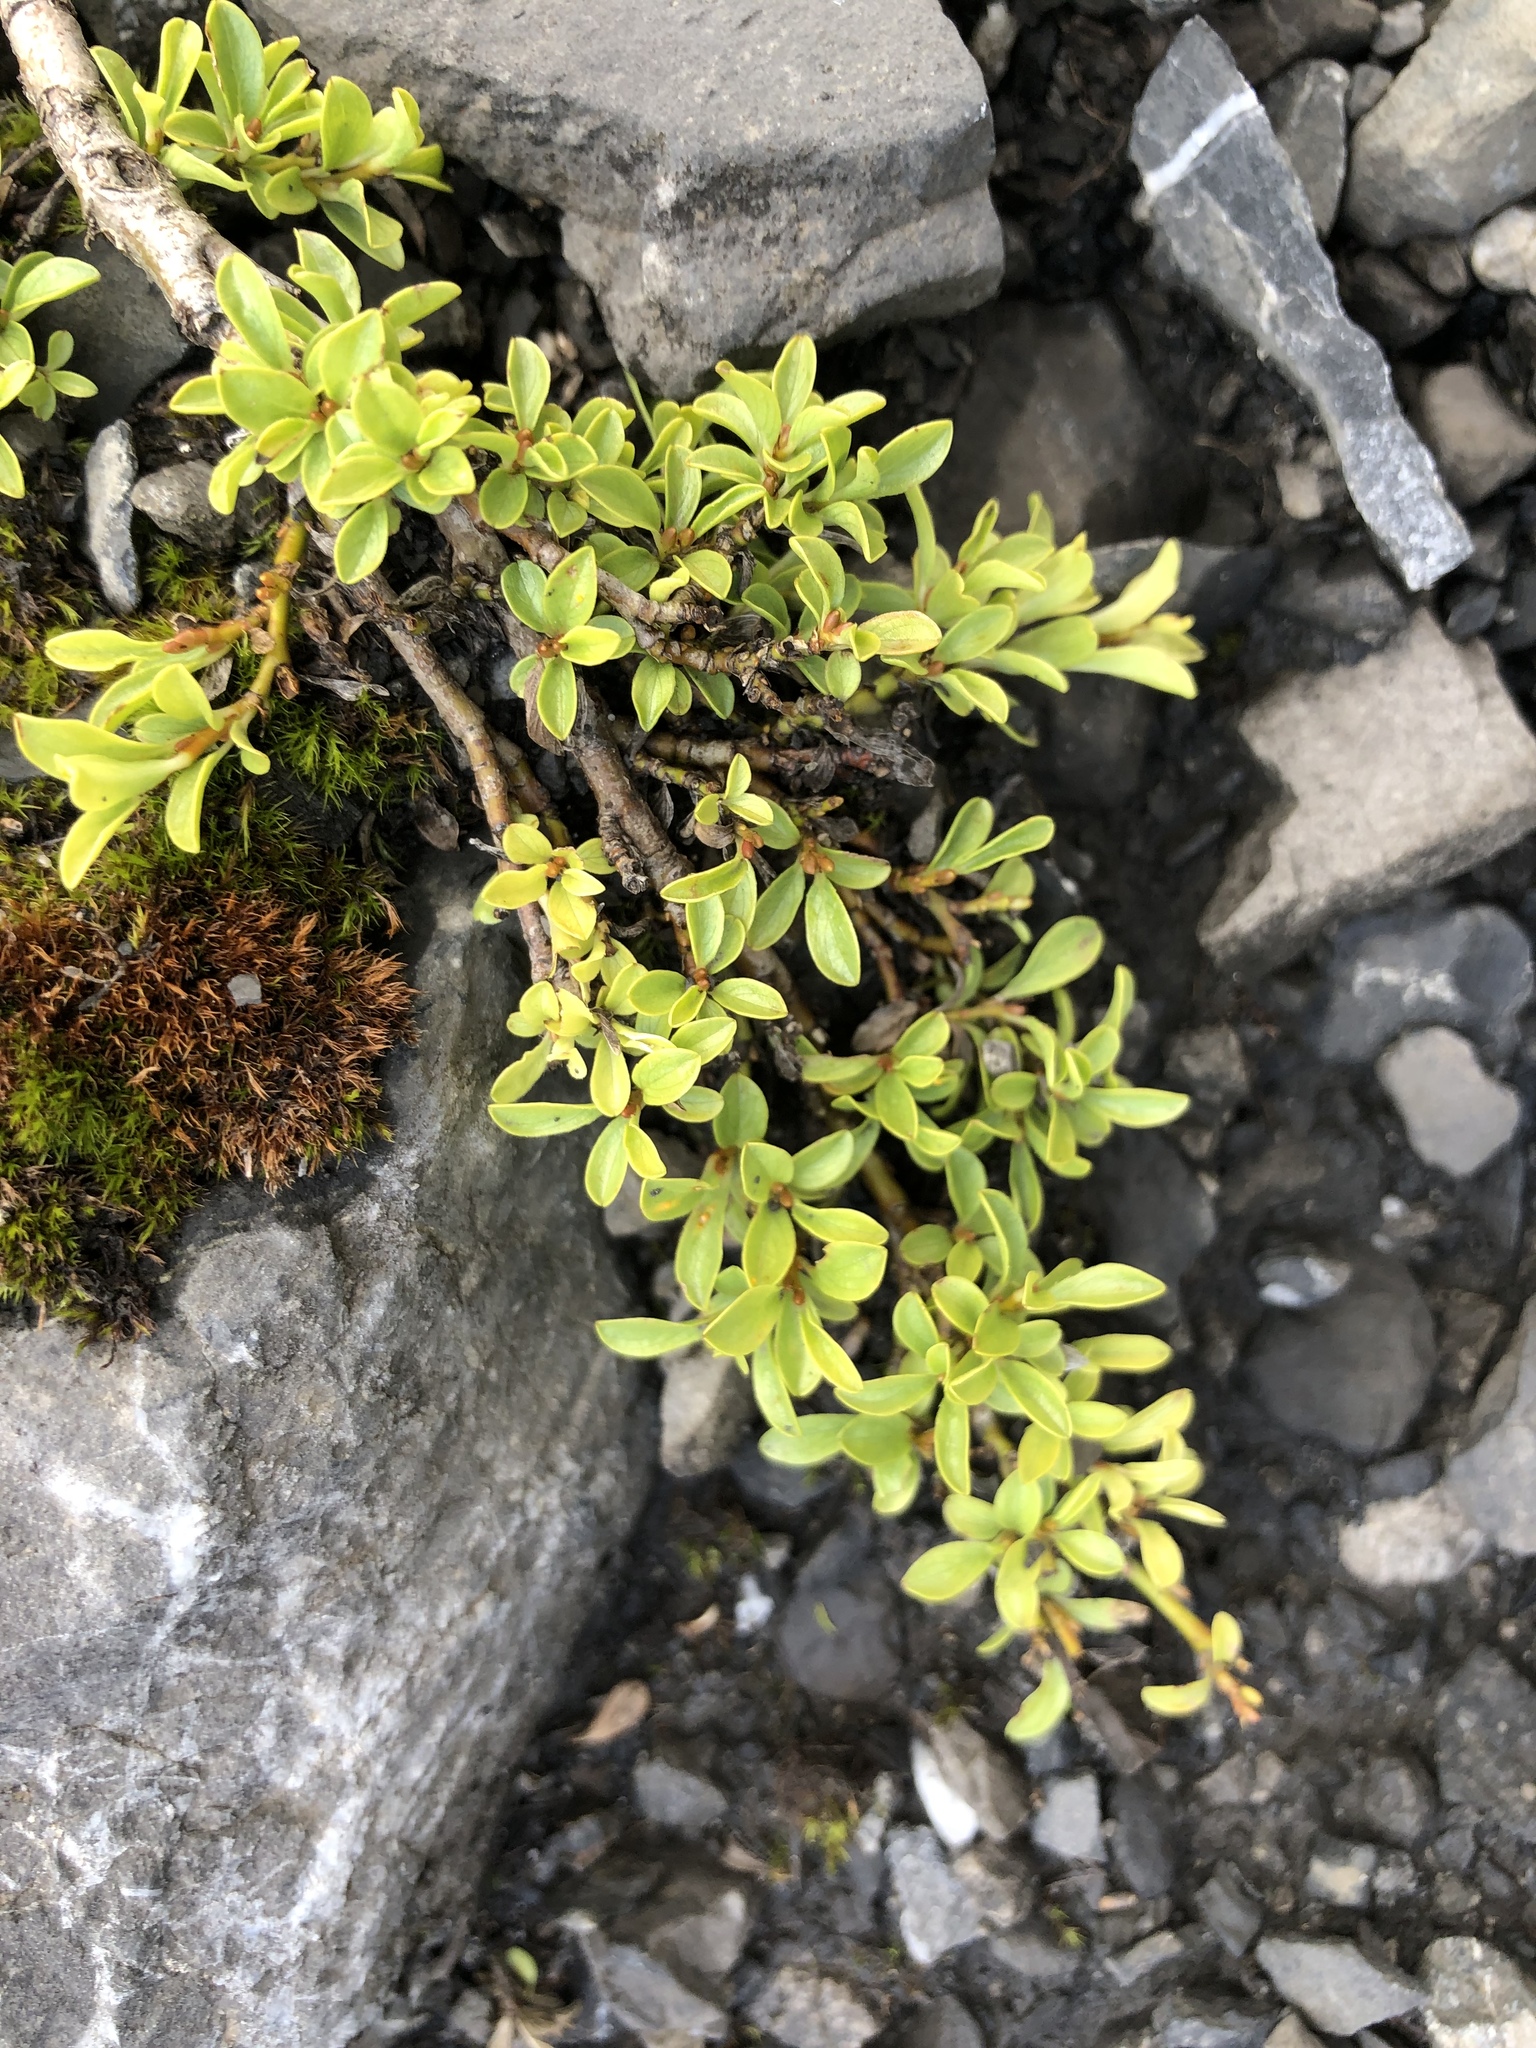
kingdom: Plantae
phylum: Tracheophyta
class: Magnoliopsida
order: Ericales
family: Ericaceae
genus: Kalmia
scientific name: Kalmia procumbens
